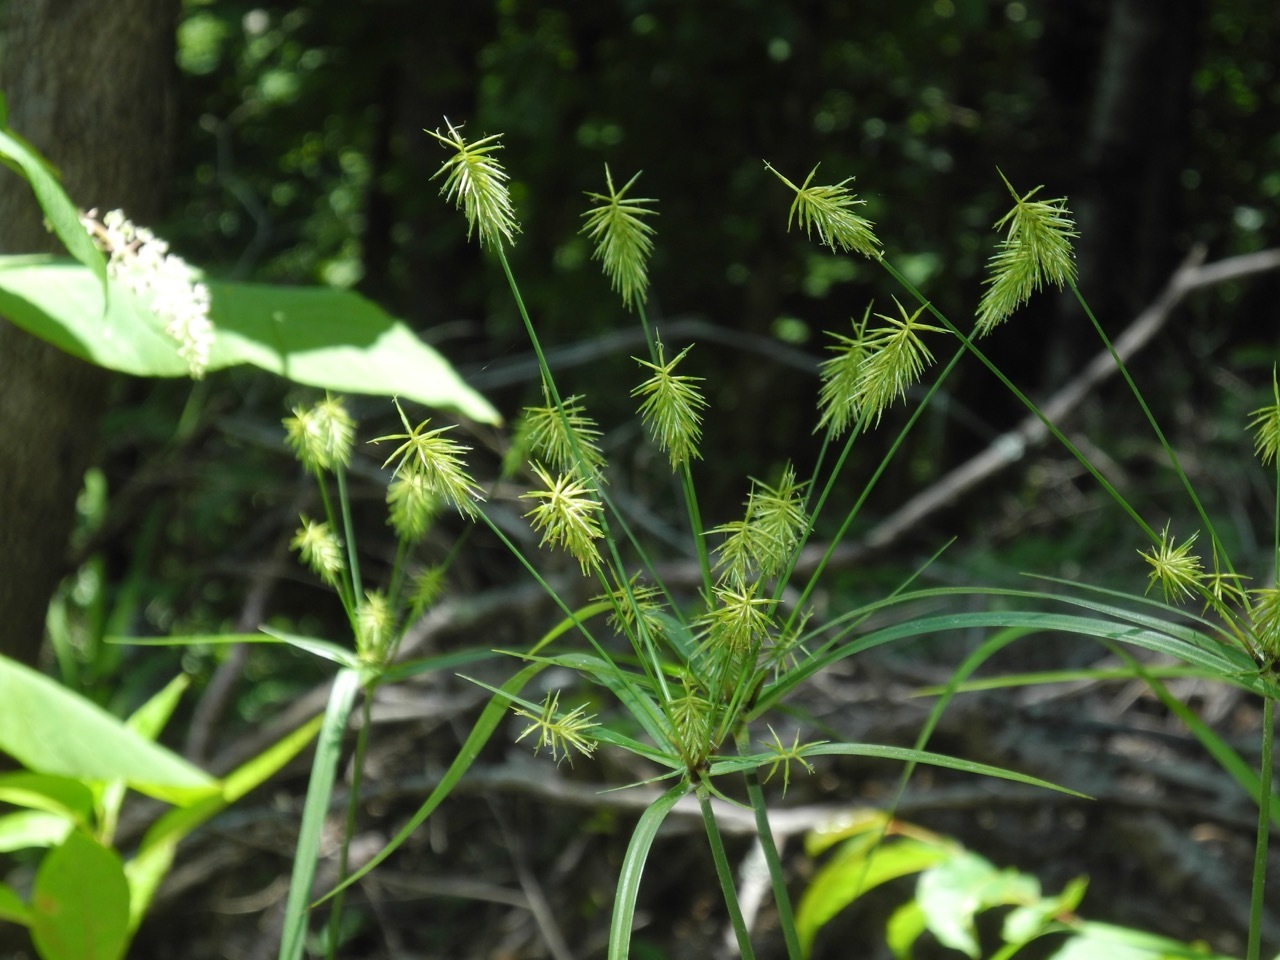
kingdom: Plantae
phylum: Tracheophyta
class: Liliopsida
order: Poales
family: Cyperaceae
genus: Cyperus
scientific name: Cyperus retrofractus
